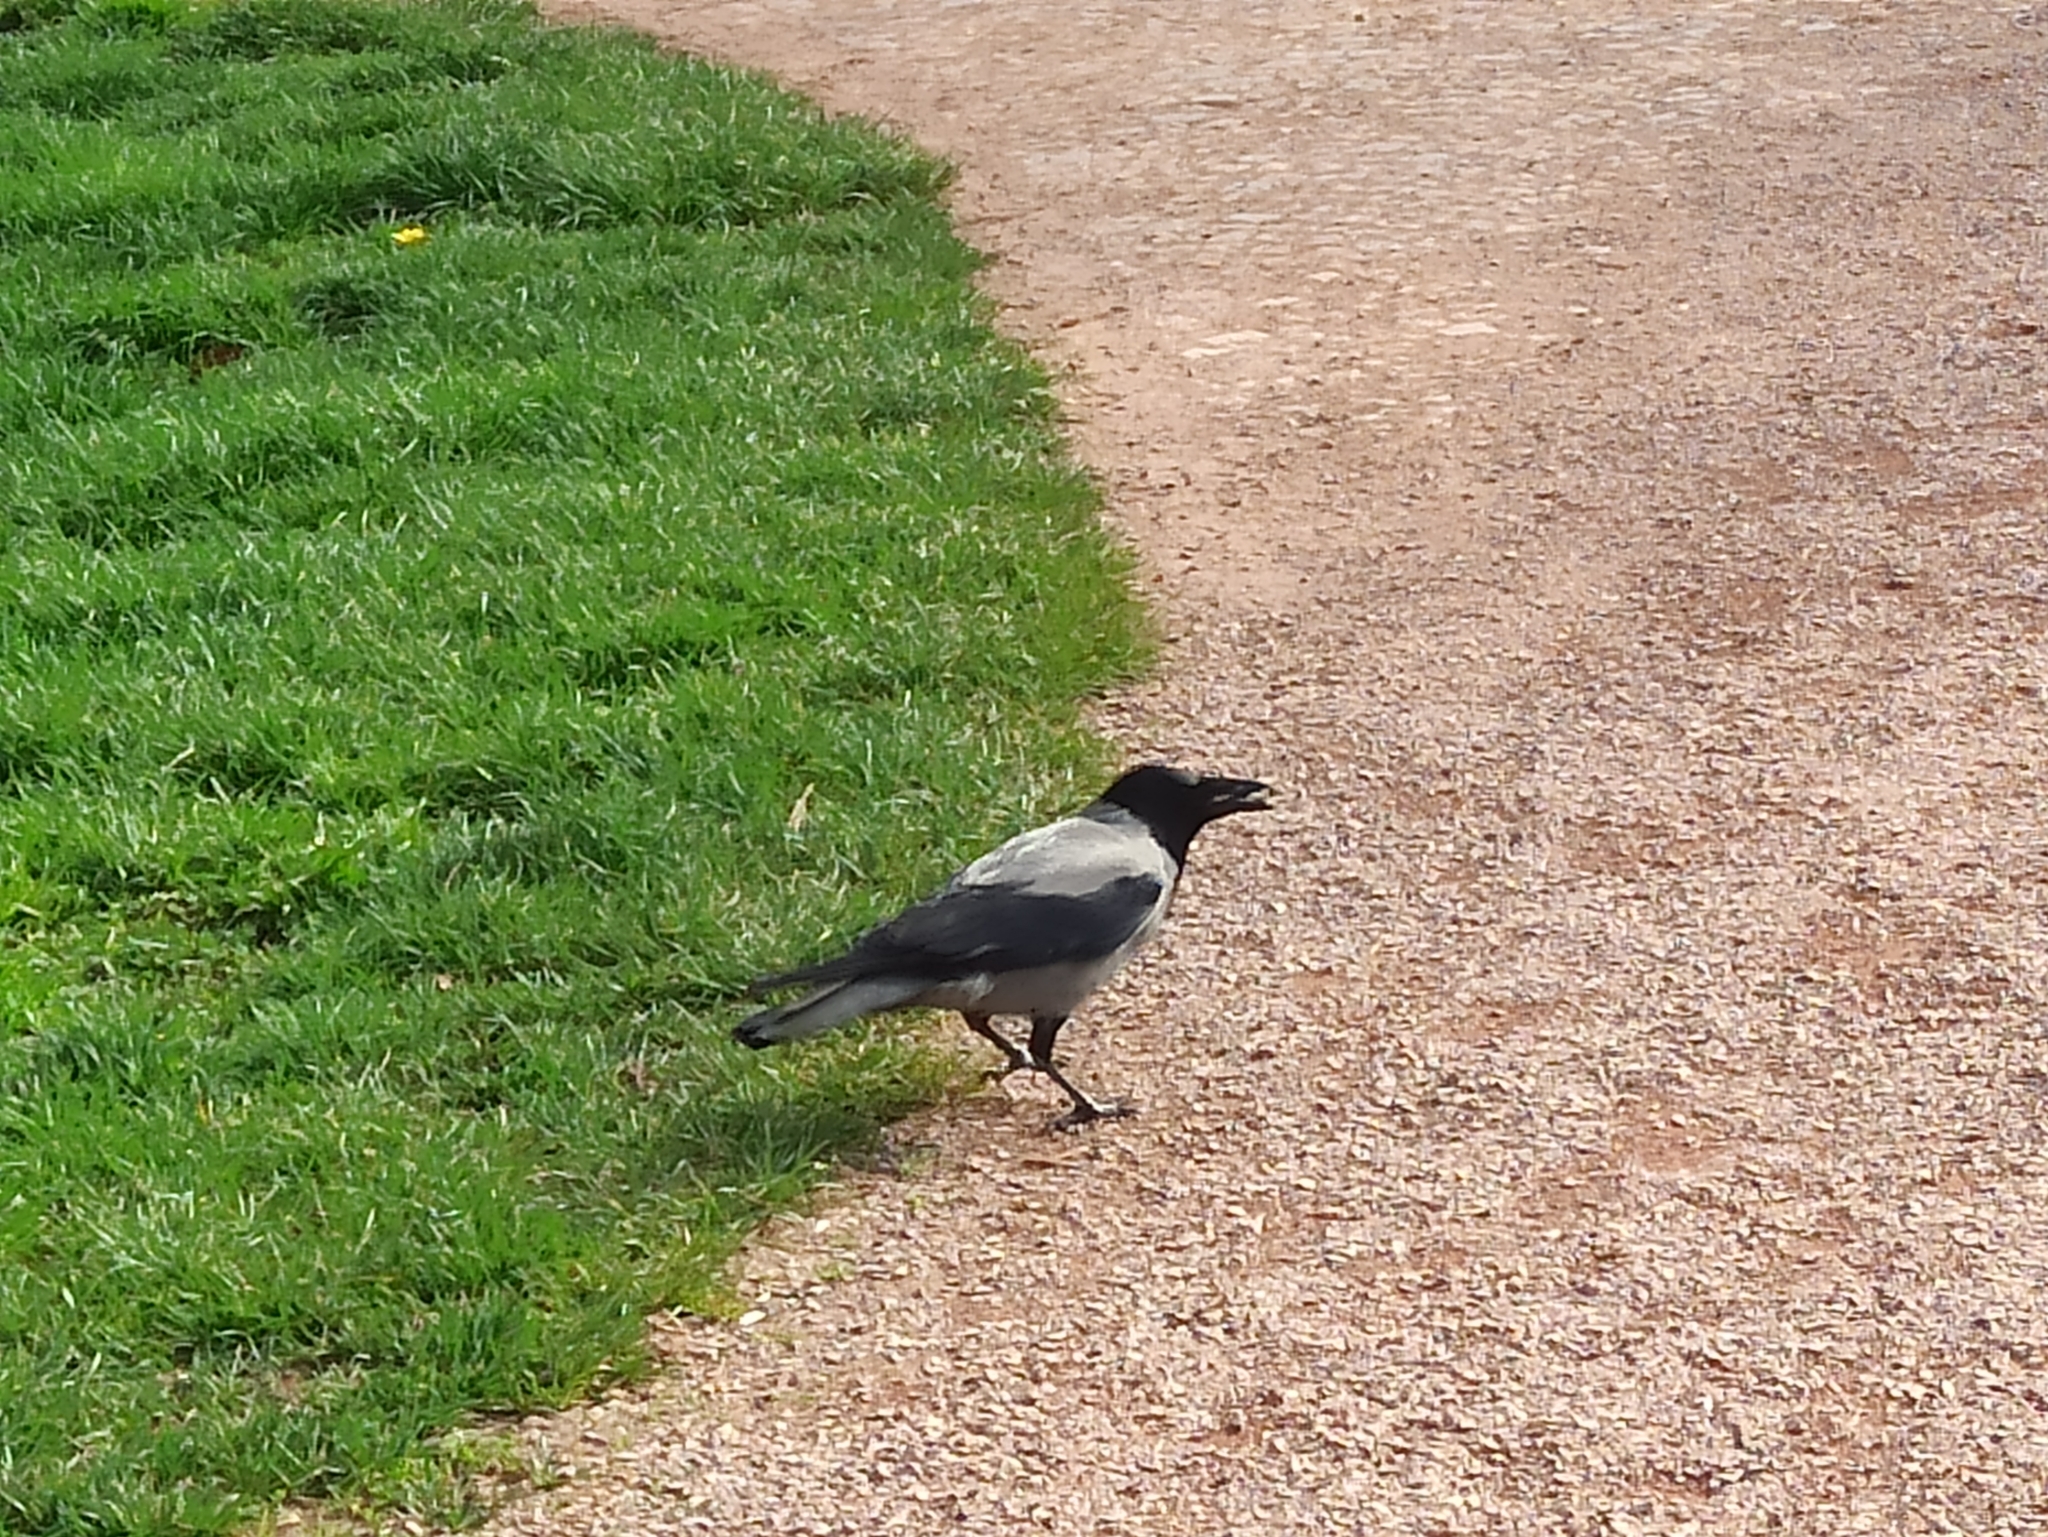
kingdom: Animalia
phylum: Chordata
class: Aves
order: Passeriformes
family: Corvidae
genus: Corvus
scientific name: Corvus cornix
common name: Hooded crow
